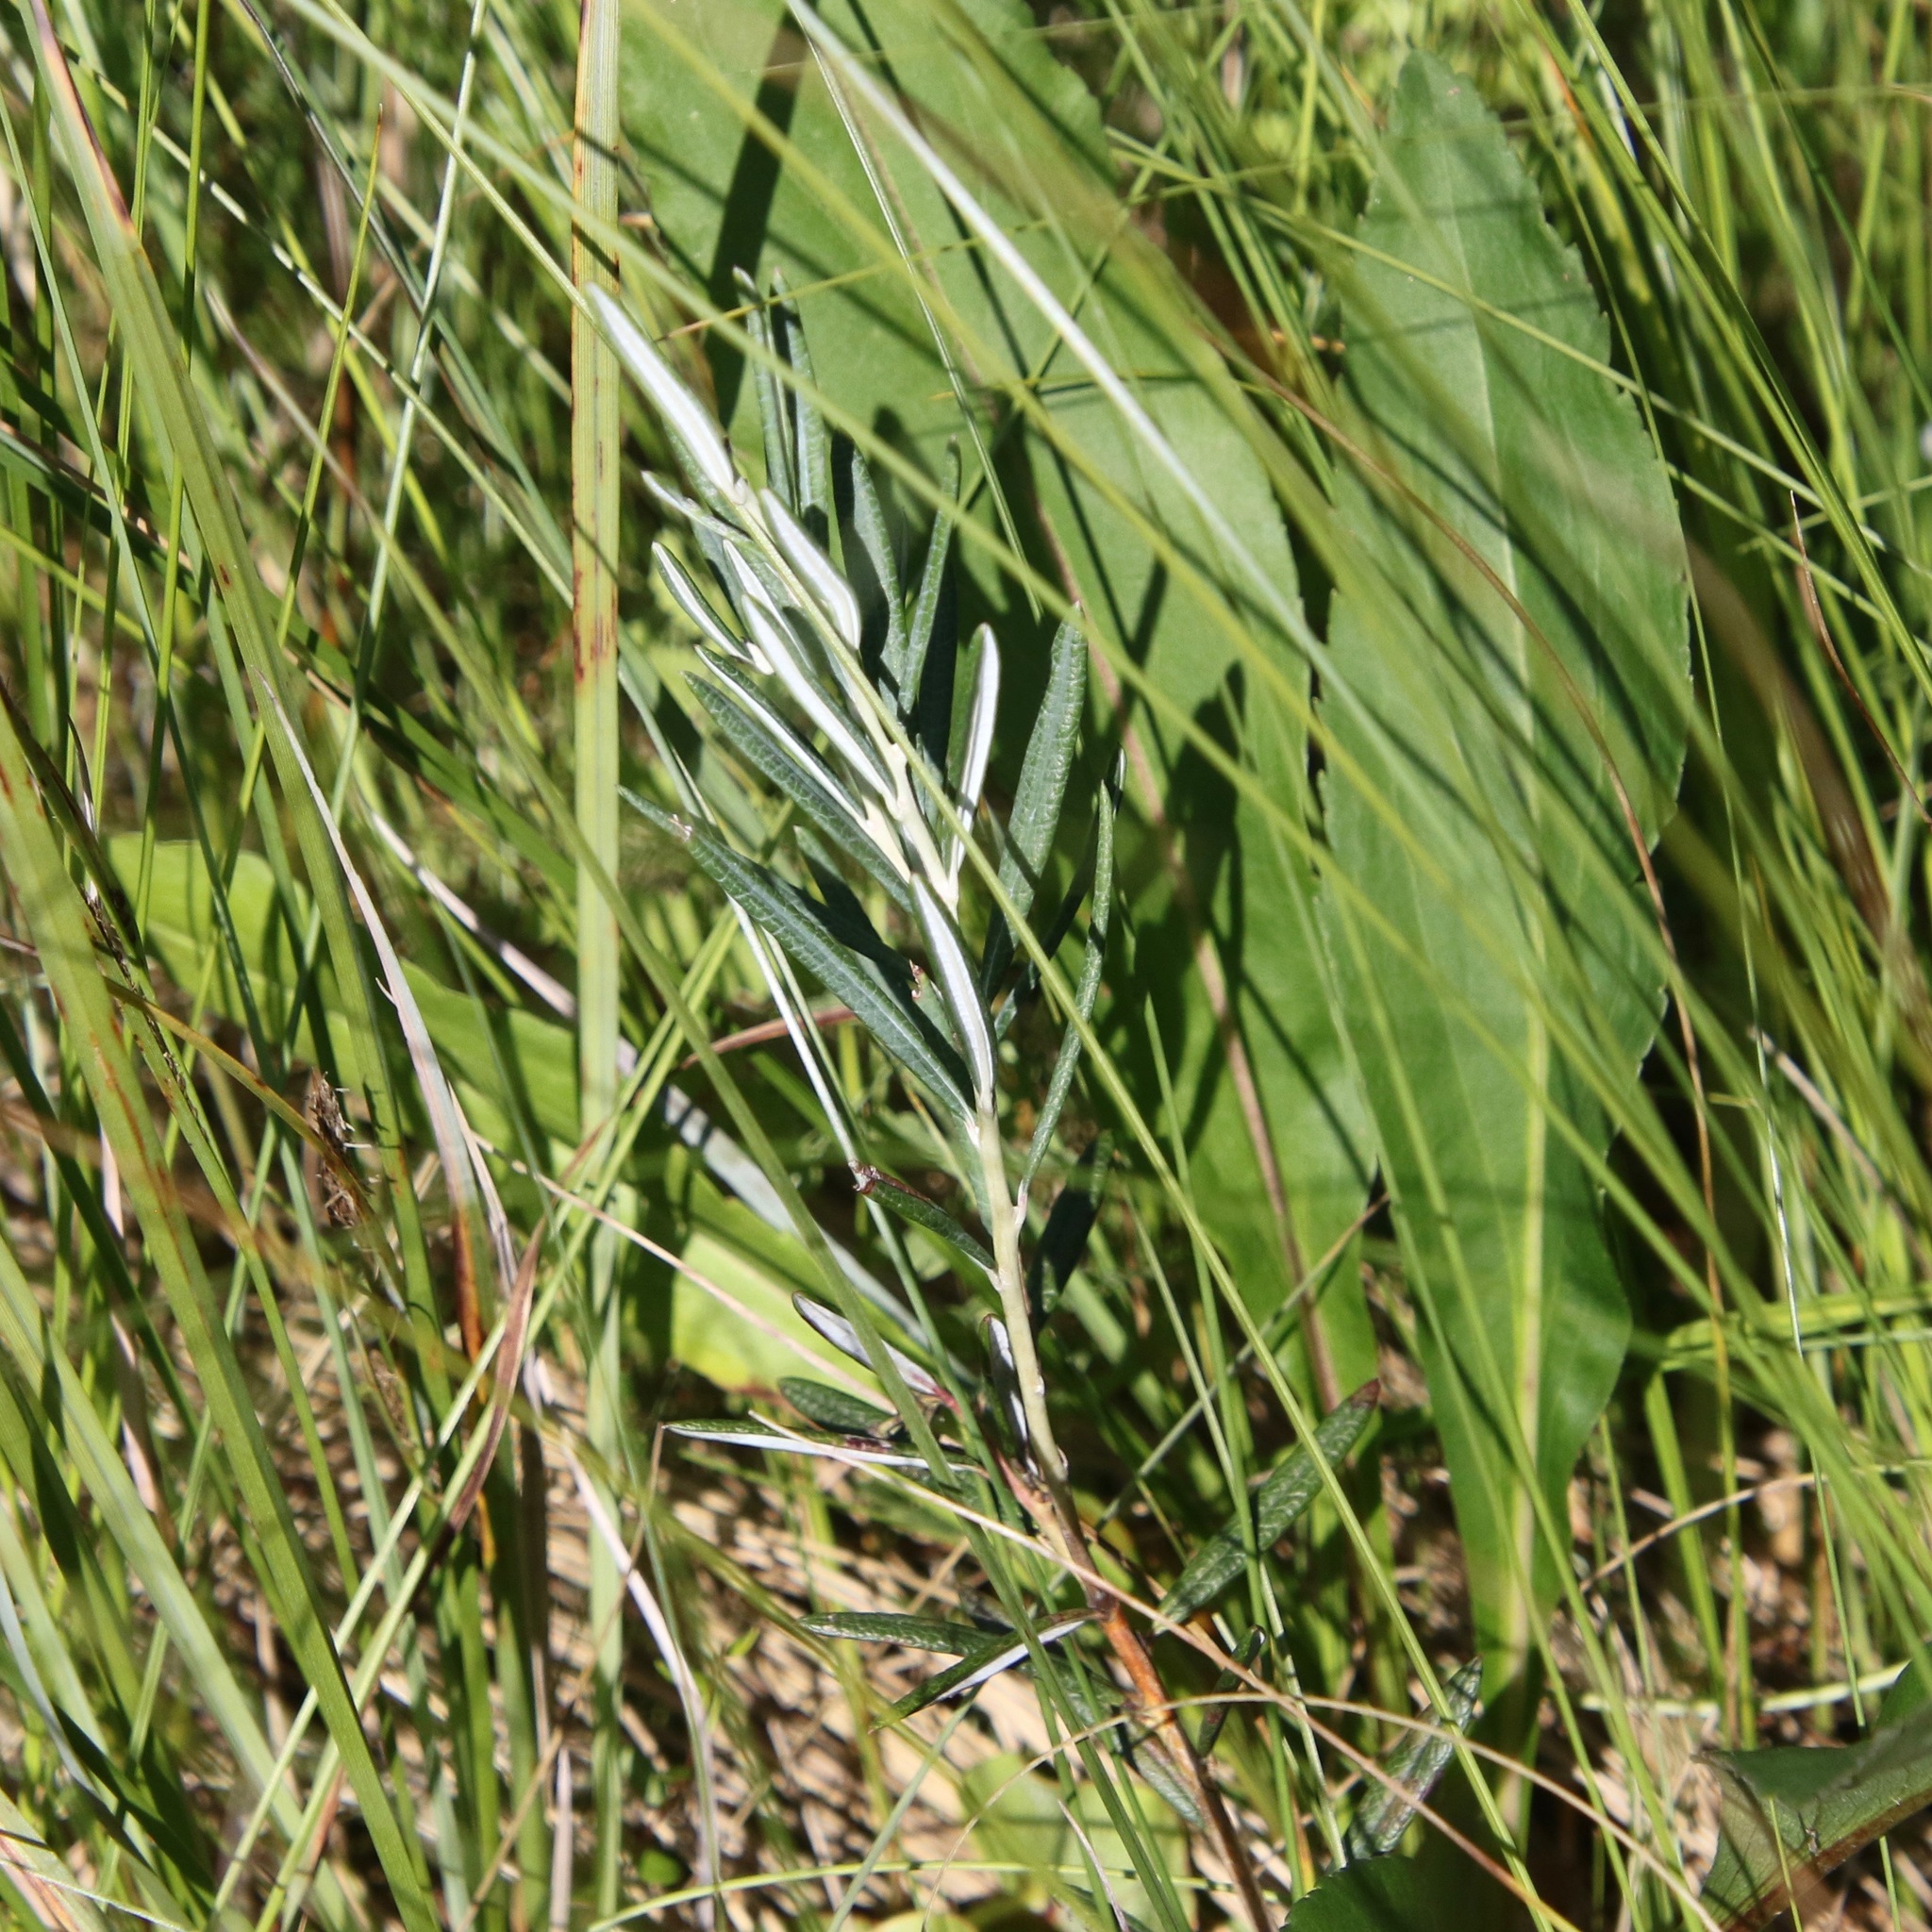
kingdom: Plantae
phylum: Tracheophyta
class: Magnoliopsida
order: Ericales
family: Ericaceae
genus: Andromeda
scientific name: Andromeda polifolia
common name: Bog-rosemary
